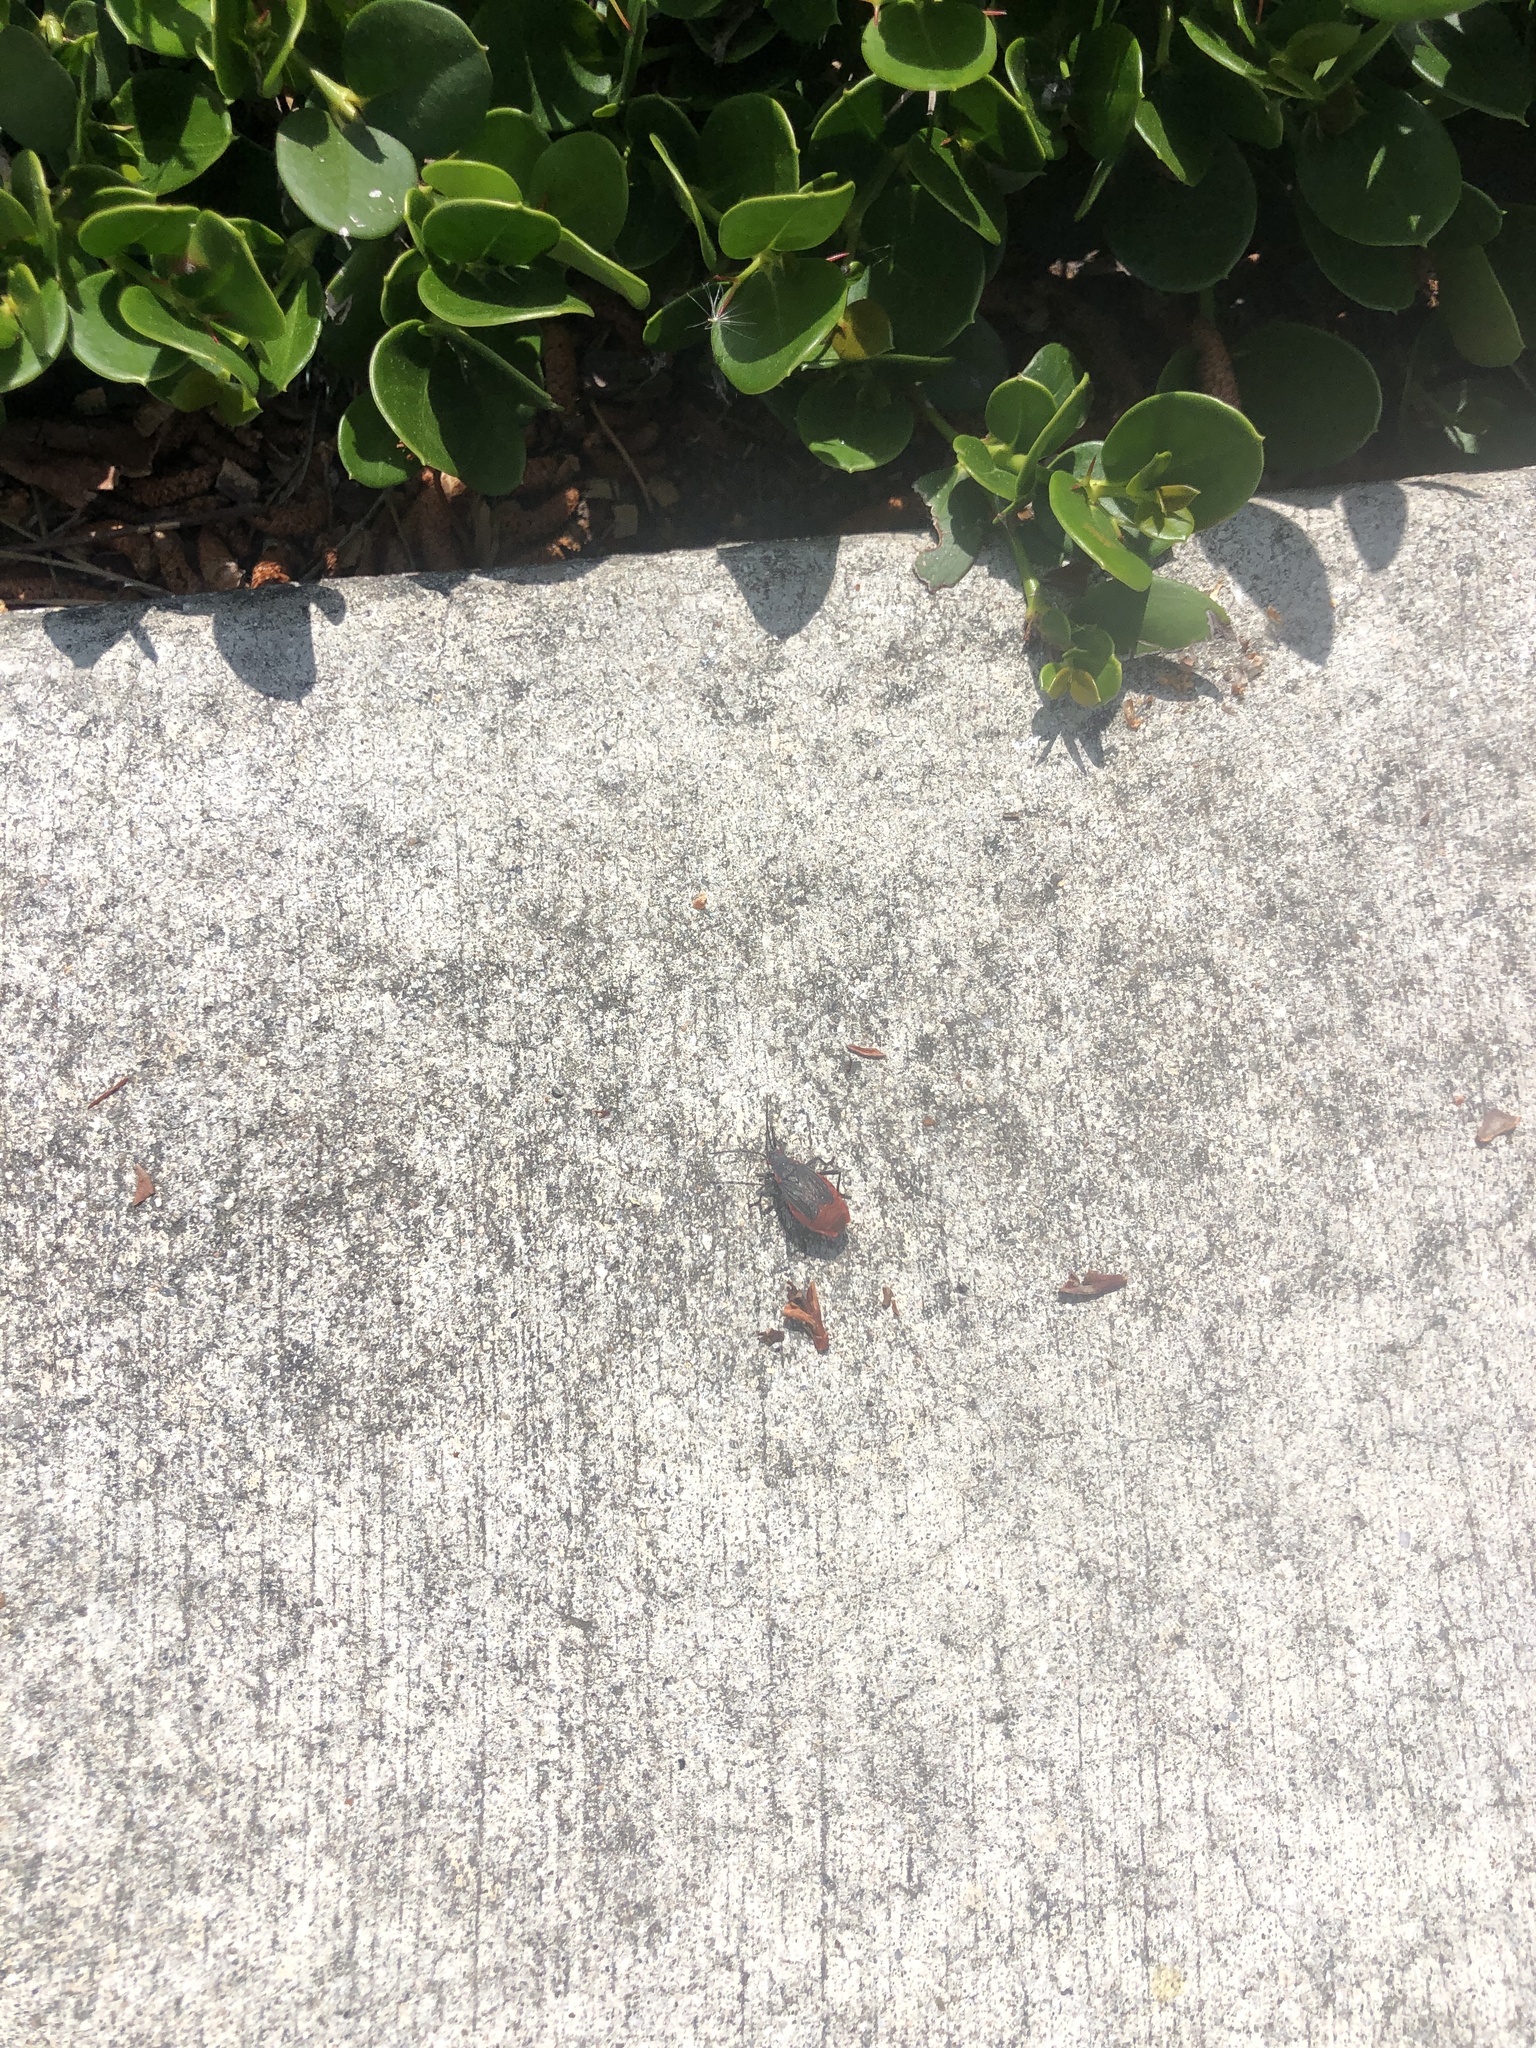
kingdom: Animalia
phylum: Arthropoda
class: Insecta
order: Hemiptera
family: Rhopalidae
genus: Jadera
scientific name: Jadera haematoloma
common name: Red-shouldered bug
